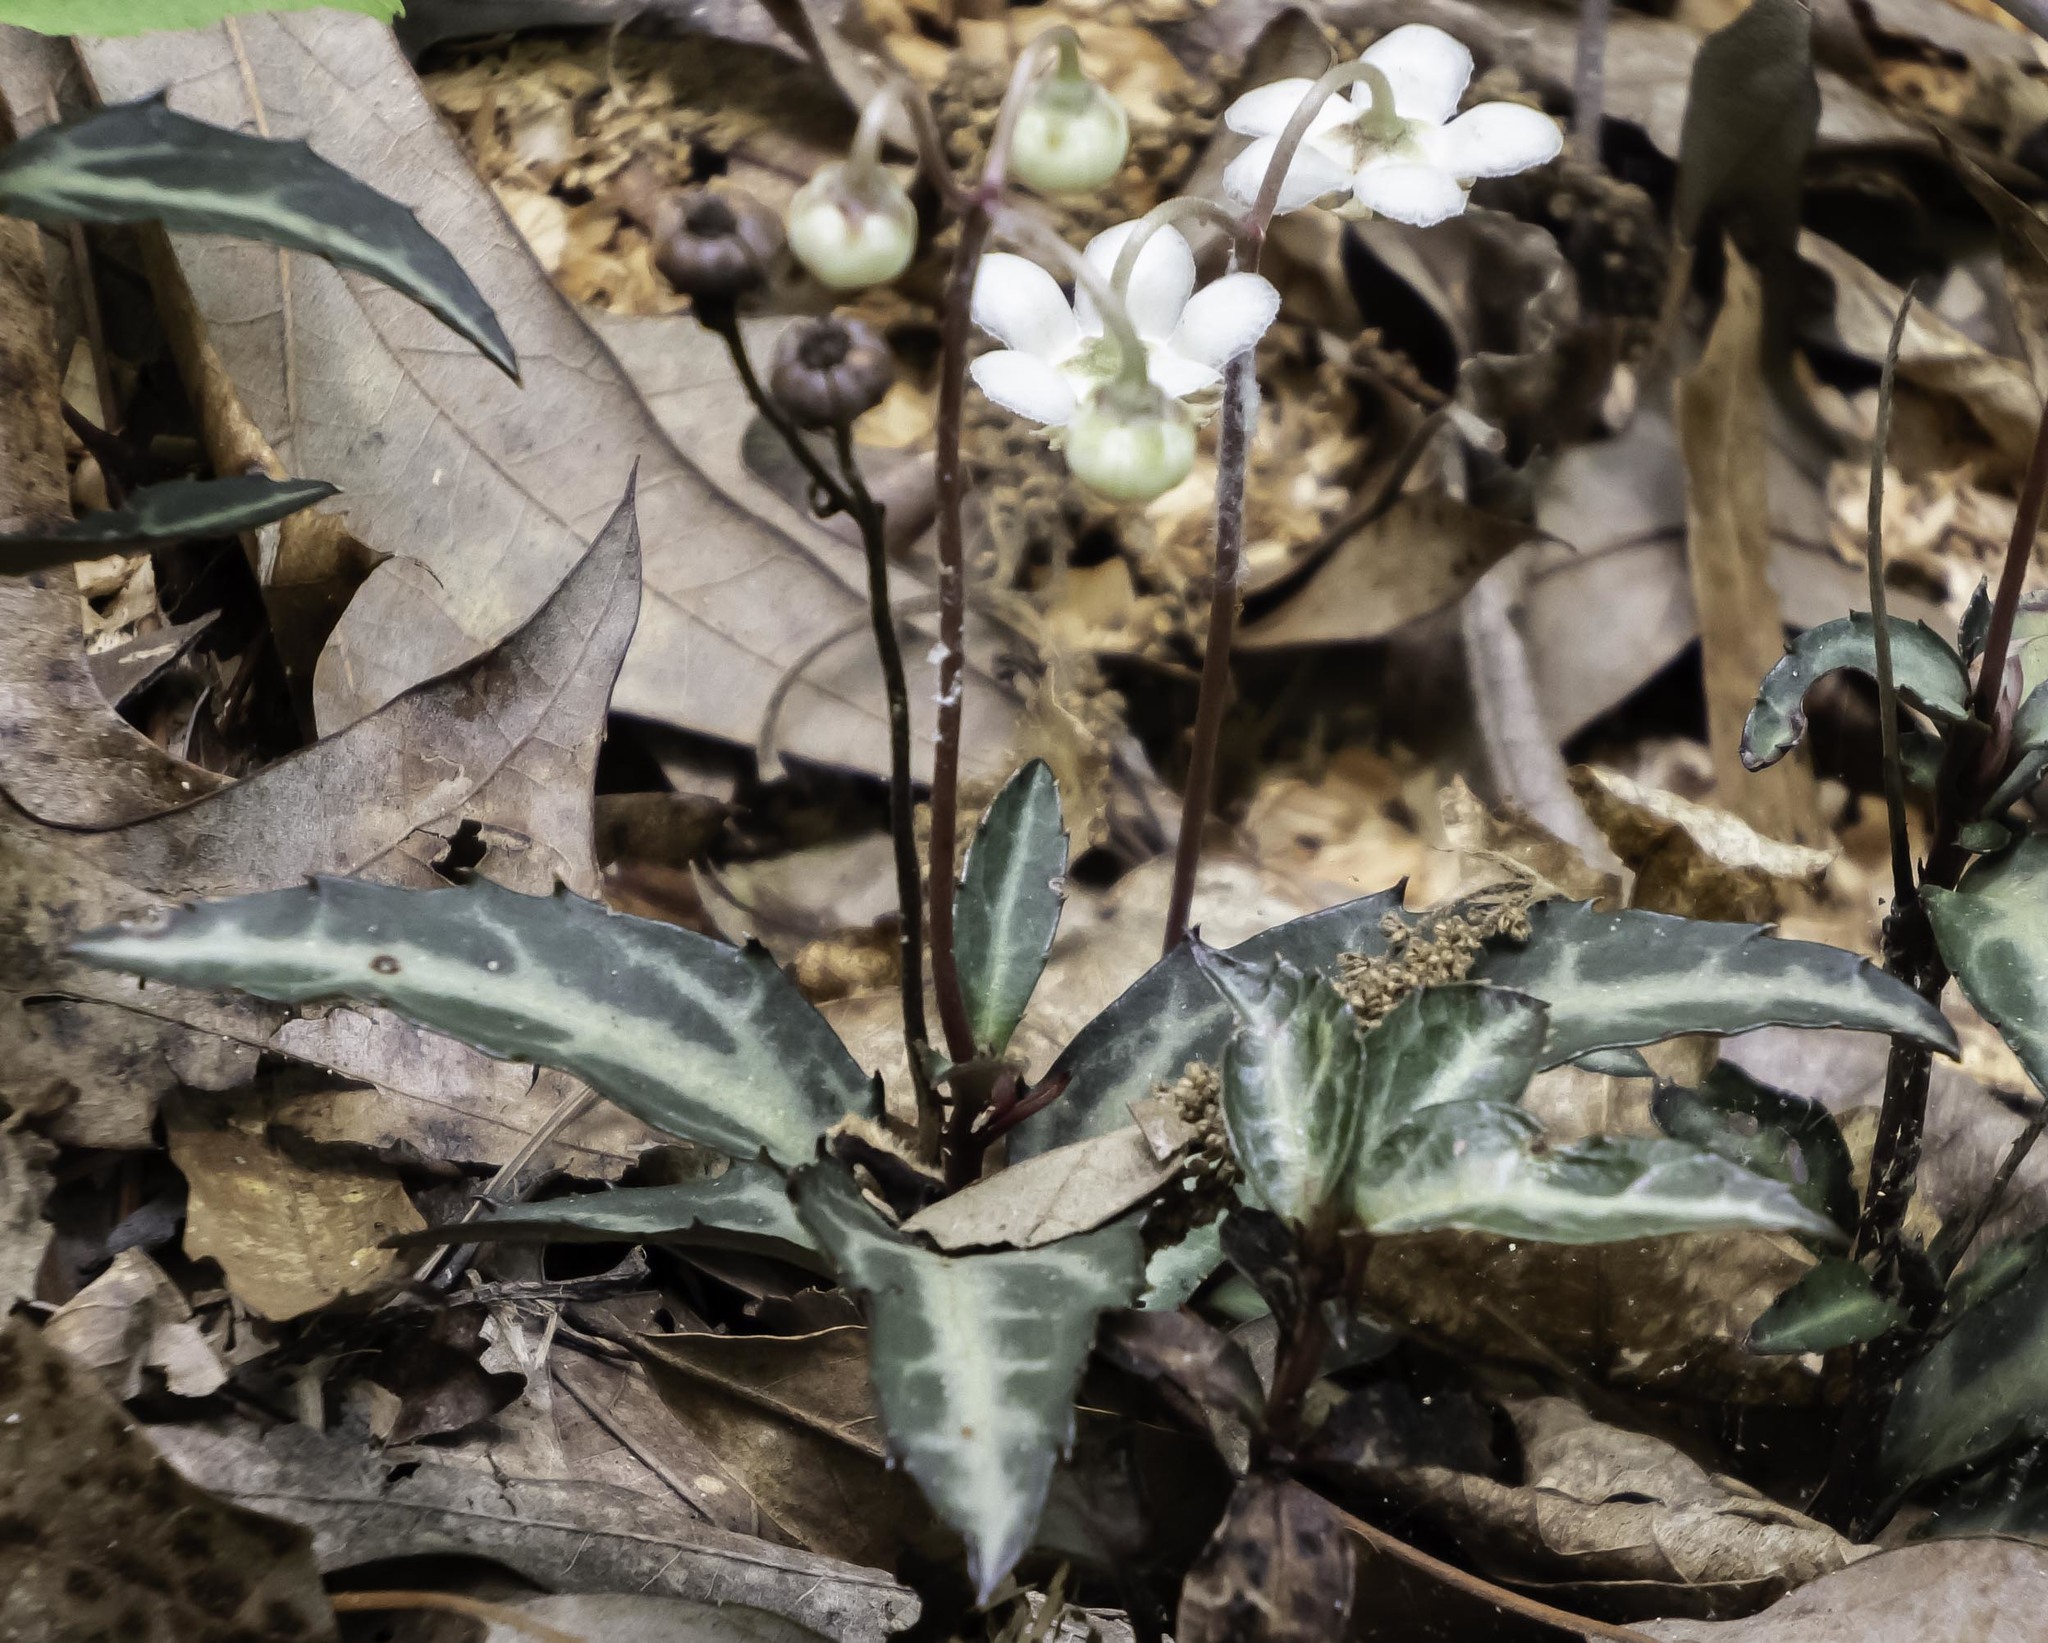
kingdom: Plantae
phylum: Tracheophyta
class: Magnoliopsida
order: Ericales
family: Ericaceae
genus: Chimaphila
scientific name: Chimaphila maculata
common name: Spotted pipsissewa
